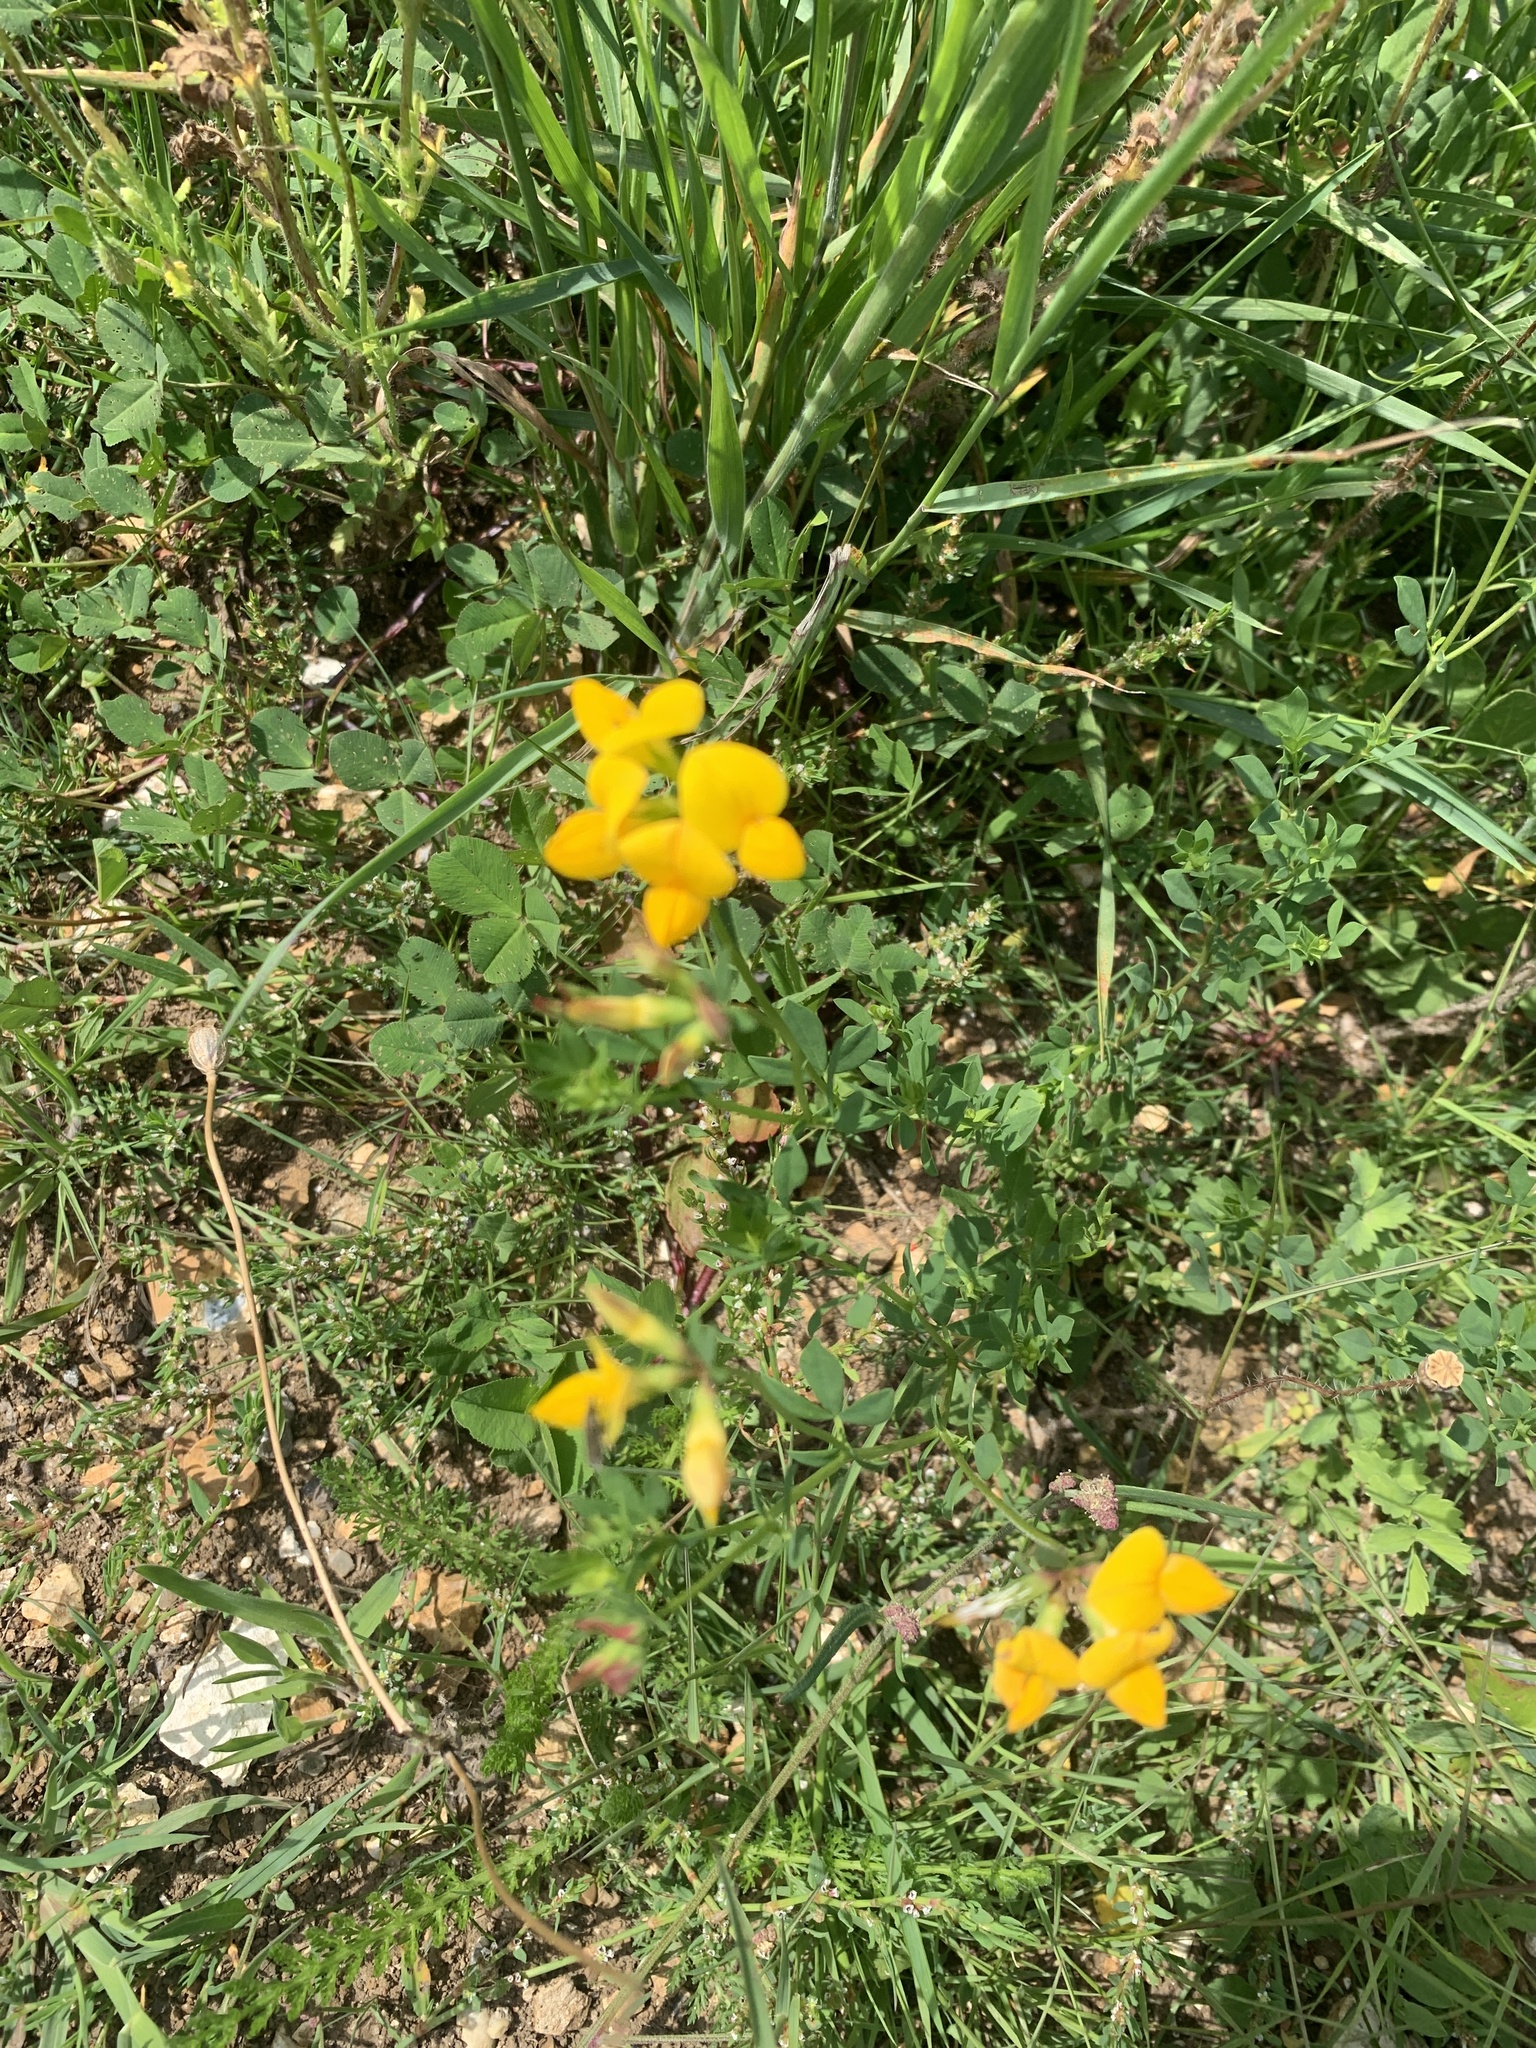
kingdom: Plantae
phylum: Tracheophyta
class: Magnoliopsida
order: Fabales
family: Fabaceae
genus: Lotus
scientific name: Lotus corniculatus
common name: Common bird's-foot-trefoil
